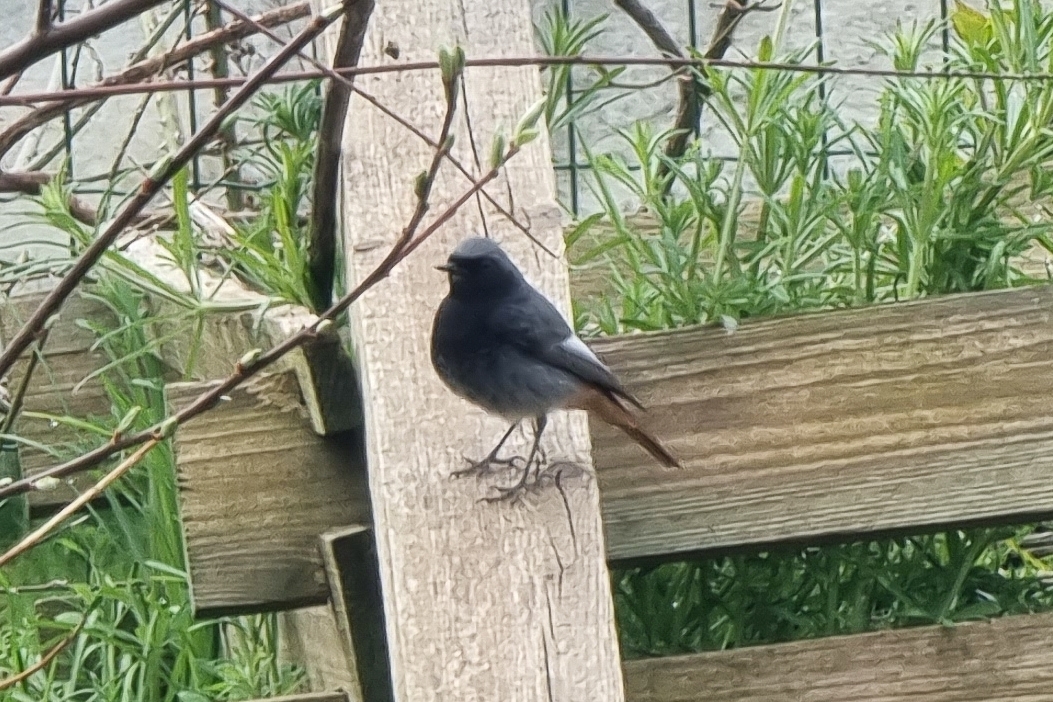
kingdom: Animalia
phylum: Chordata
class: Aves
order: Passeriformes
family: Muscicapidae
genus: Phoenicurus
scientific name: Phoenicurus ochruros
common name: Black redstart
